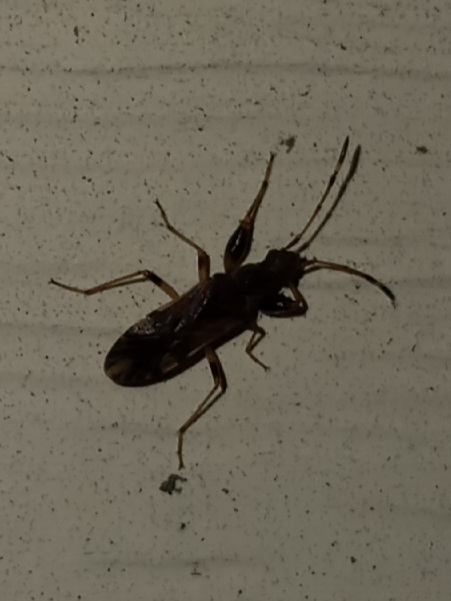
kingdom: Animalia
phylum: Arthropoda
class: Insecta
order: Hemiptera
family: Rhyparochromidae
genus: Neopamera
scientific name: Neopamera albocincta
